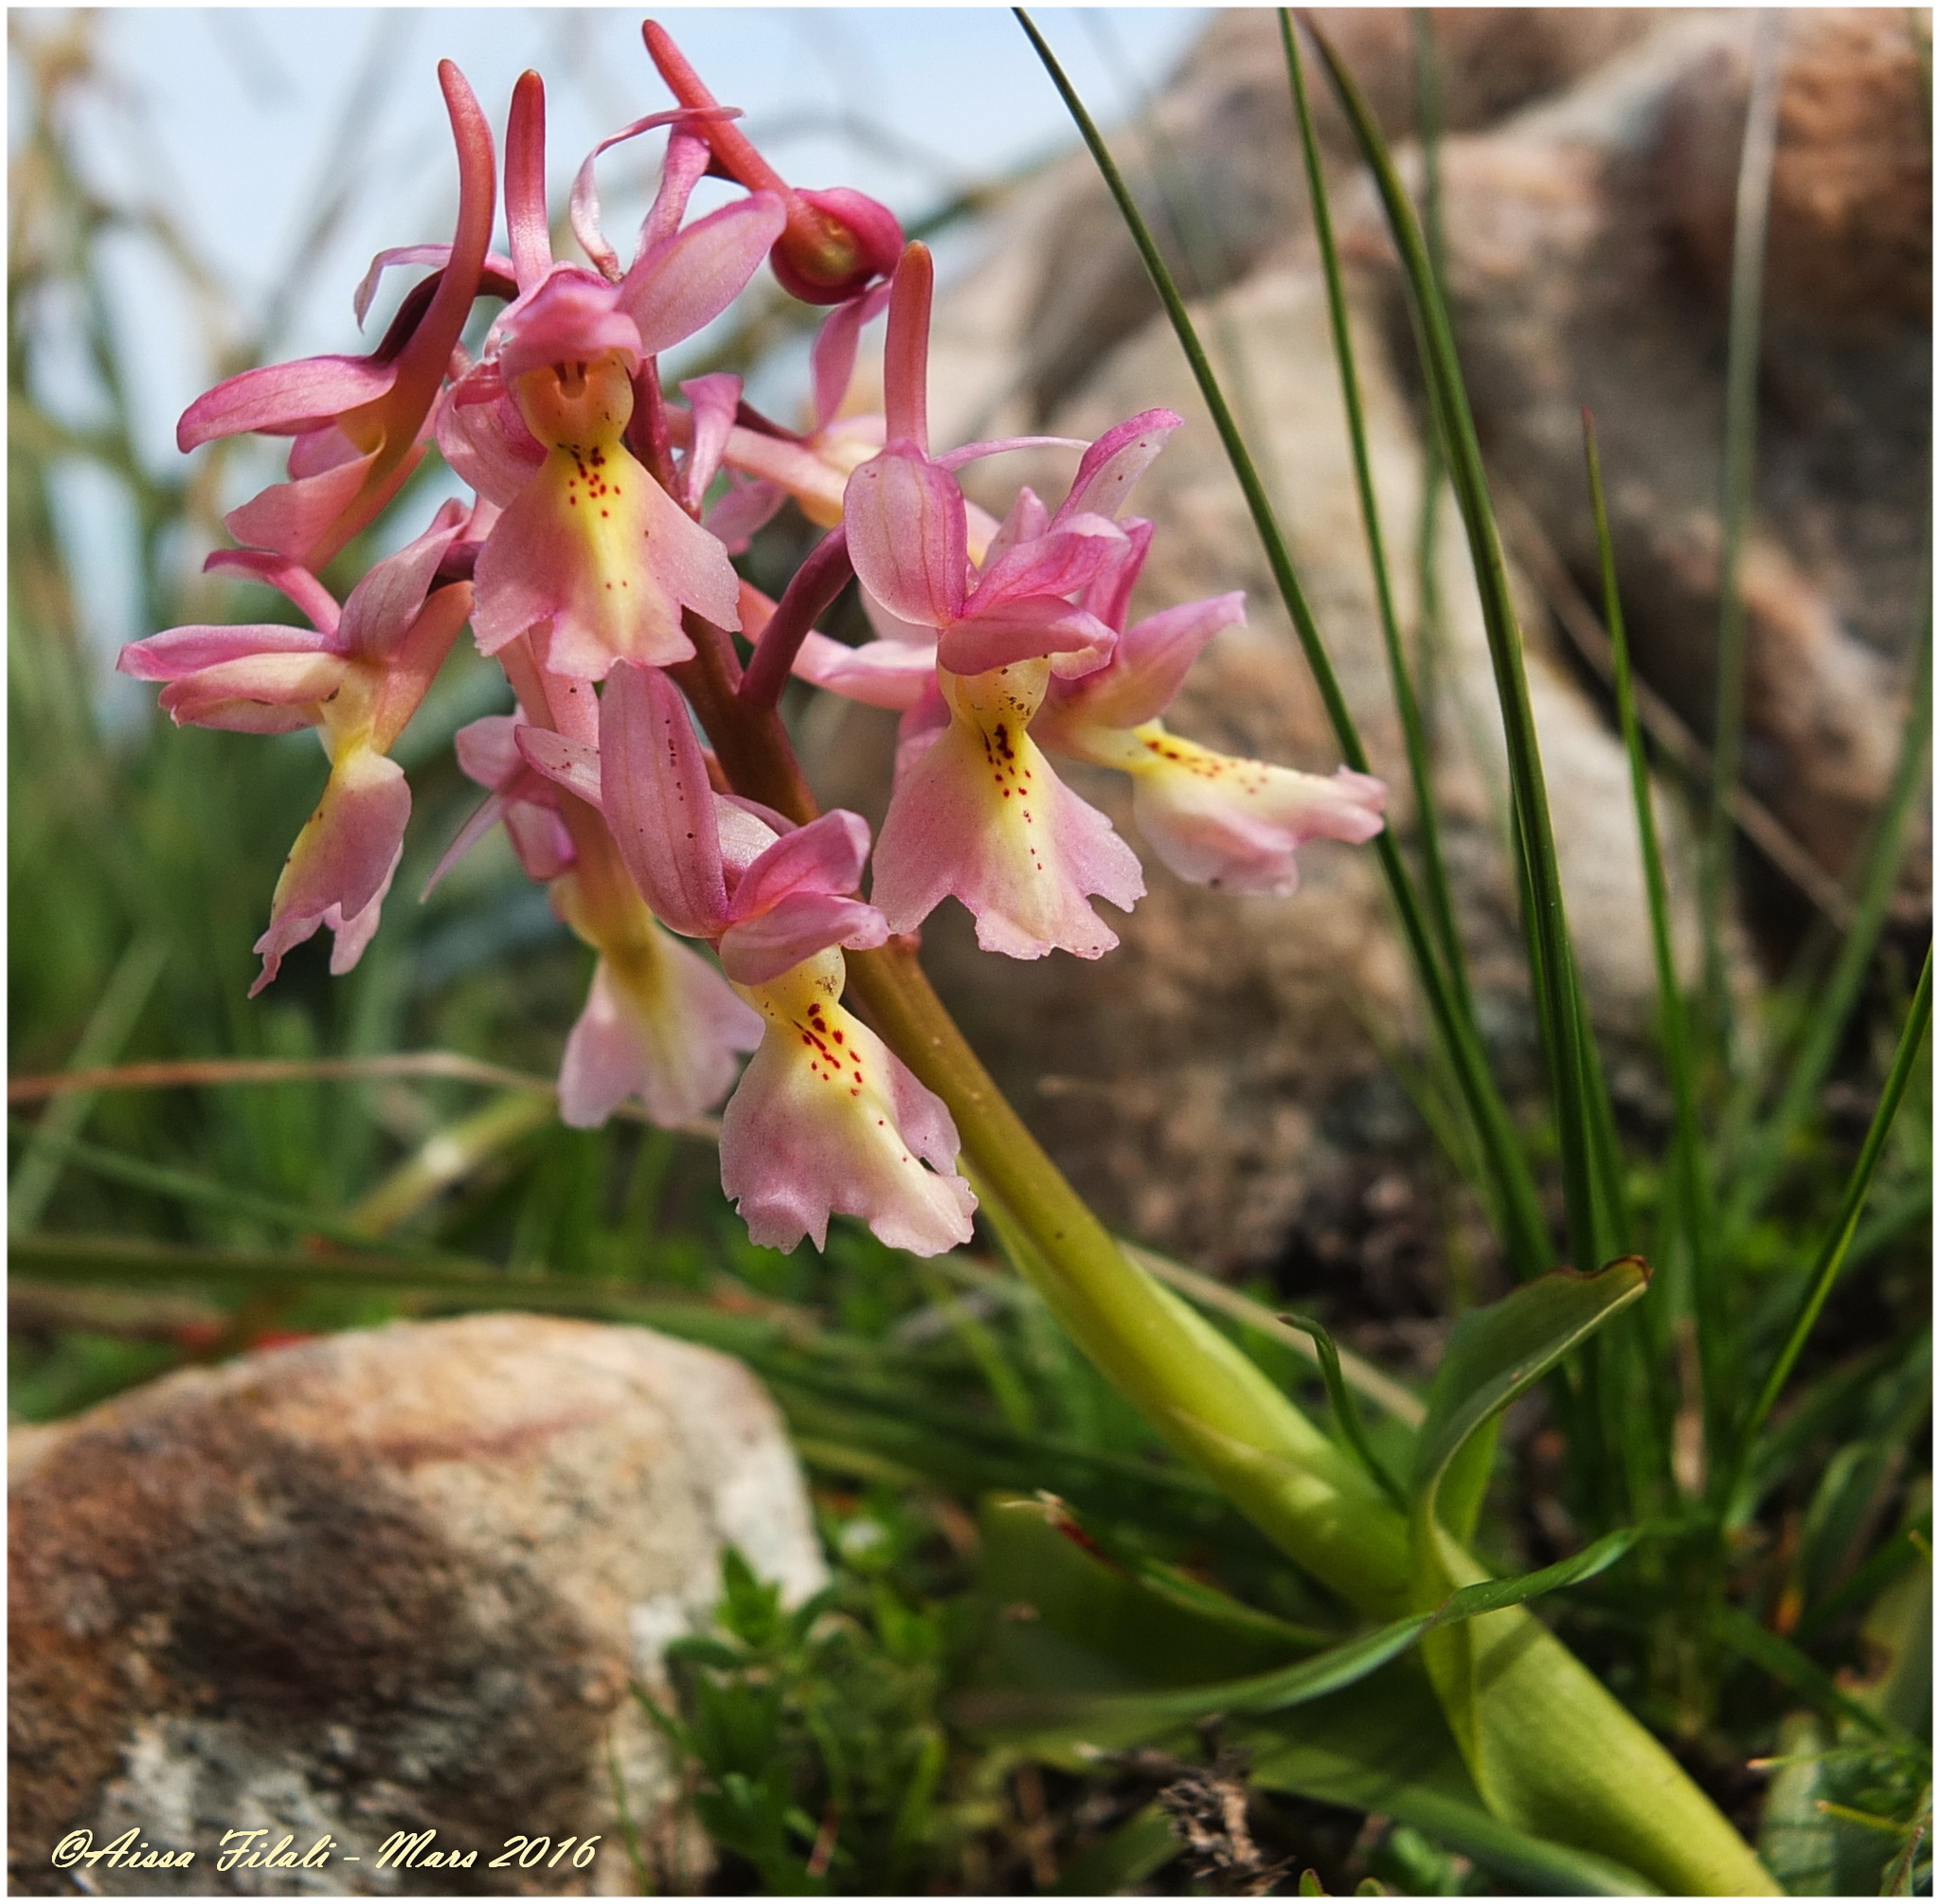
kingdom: Plantae
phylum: Tracheophyta
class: Liliopsida
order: Asparagales
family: Orchidaceae
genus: Orchis
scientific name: Orchis laeta
